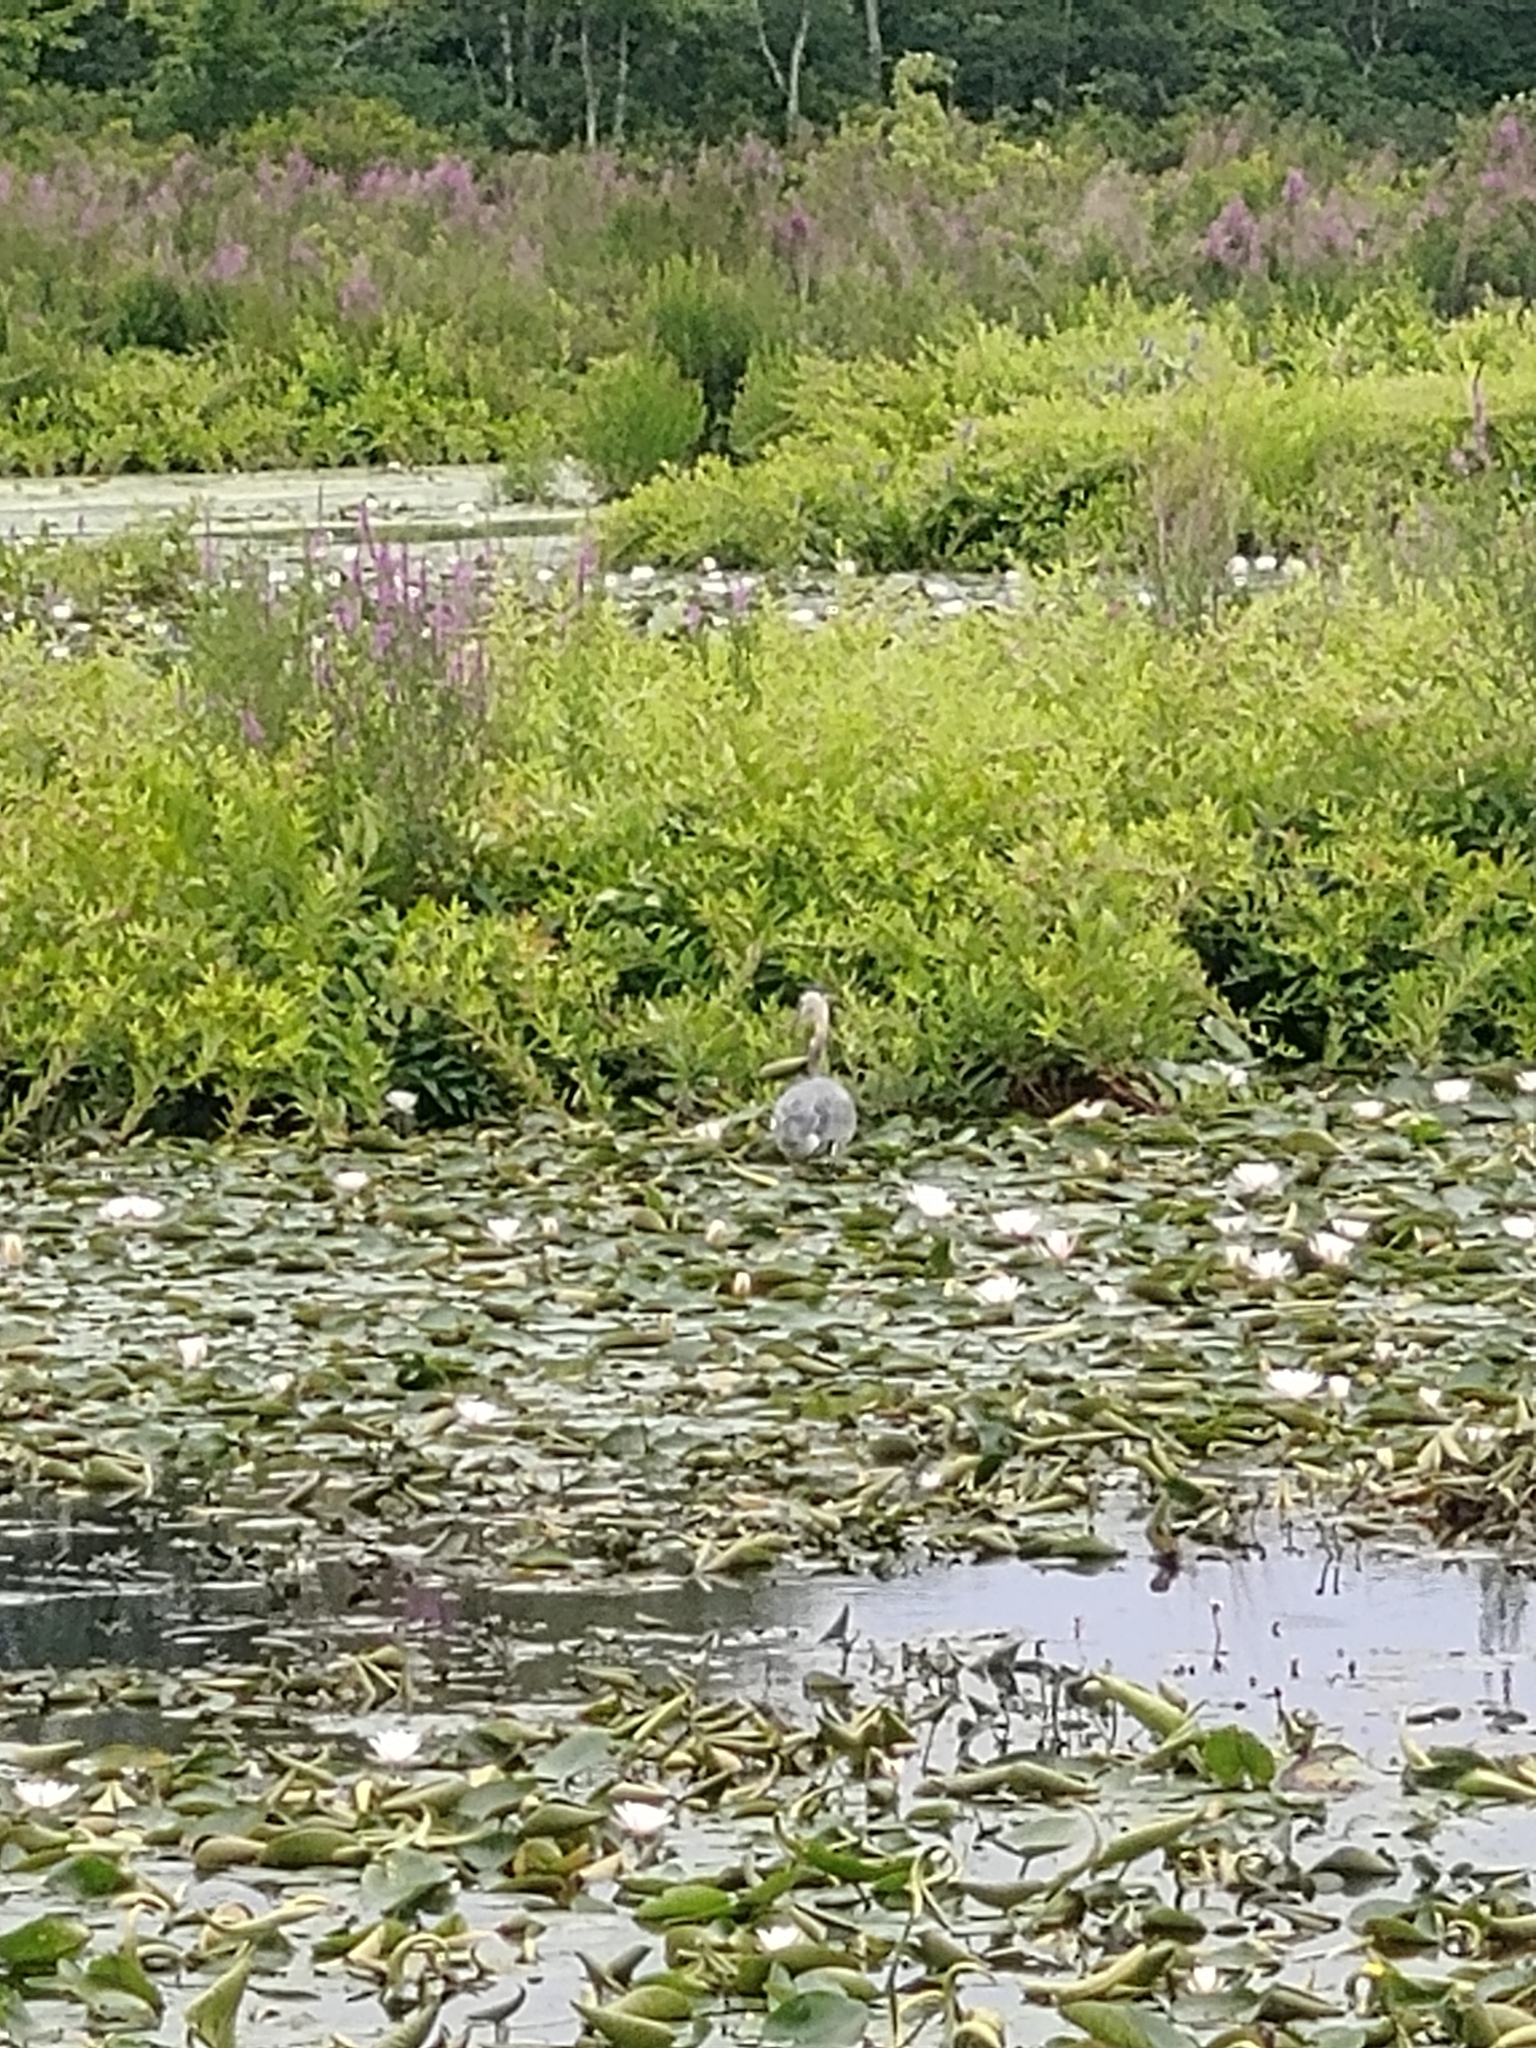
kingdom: Animalia
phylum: Chordata
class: Aves
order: Pelecaniformes
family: Ardeidae
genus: Ardea
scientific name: Ardea herodias
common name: Great blue heron
